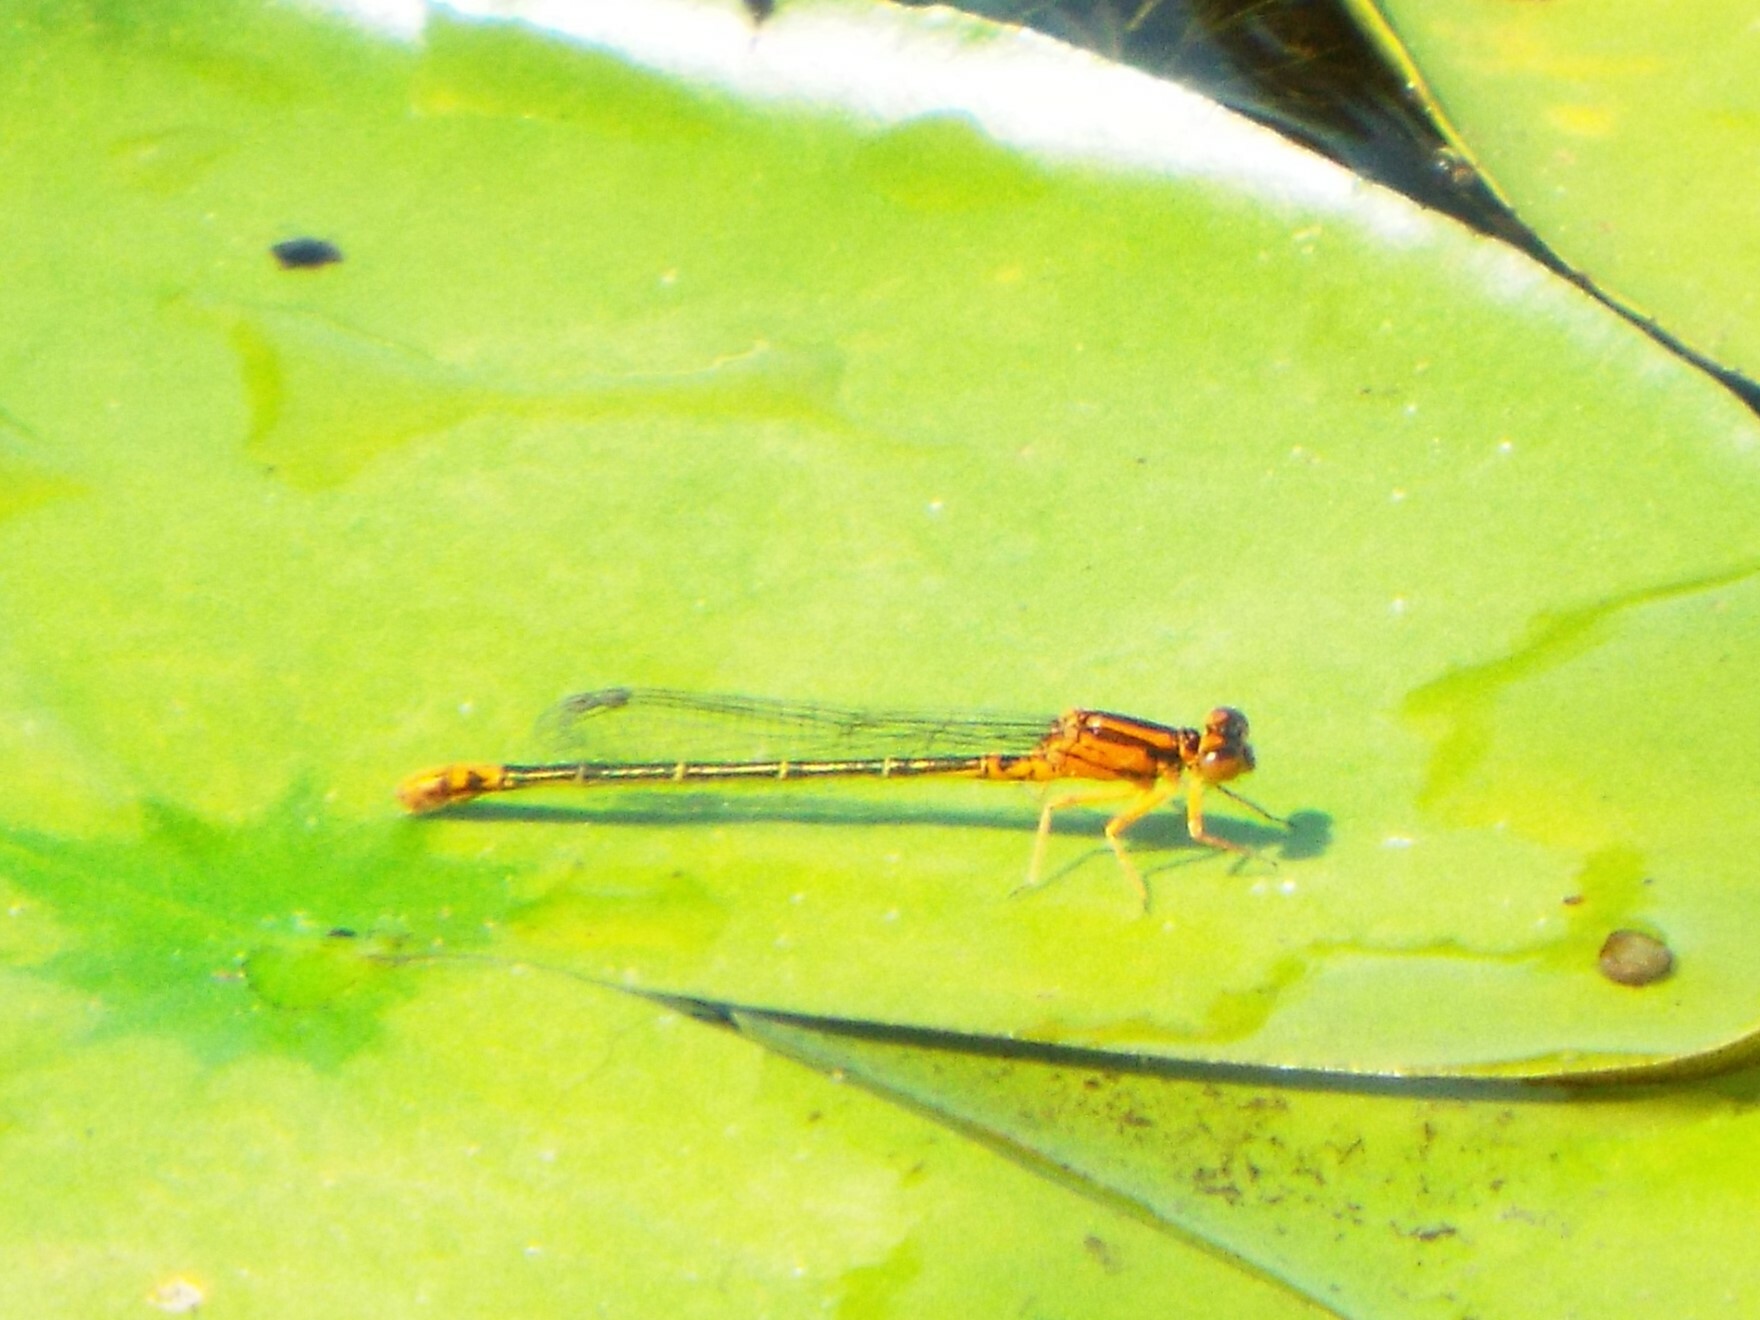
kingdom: Animalia
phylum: Arthropoda
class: Insecta
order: Odonata
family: Coenagrionidae
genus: Ischnura
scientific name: Ischnura kellicotti
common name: Lilypad forktail
